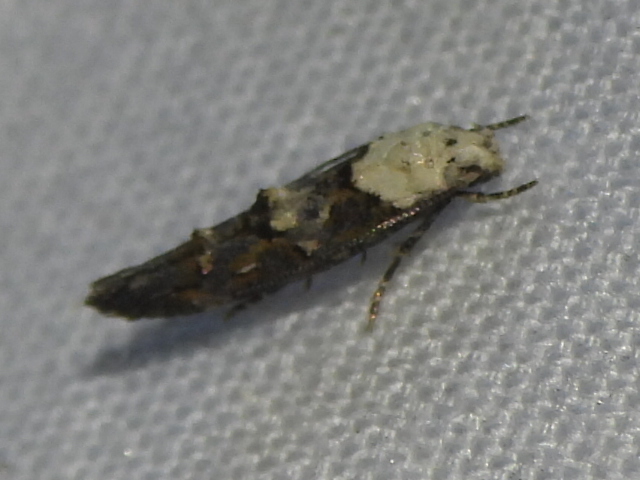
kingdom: Animalia
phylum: Arthropoda
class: Insecta
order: Lepidoptera
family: Momphidae
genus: Mompha
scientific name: Mompha albocapitella
